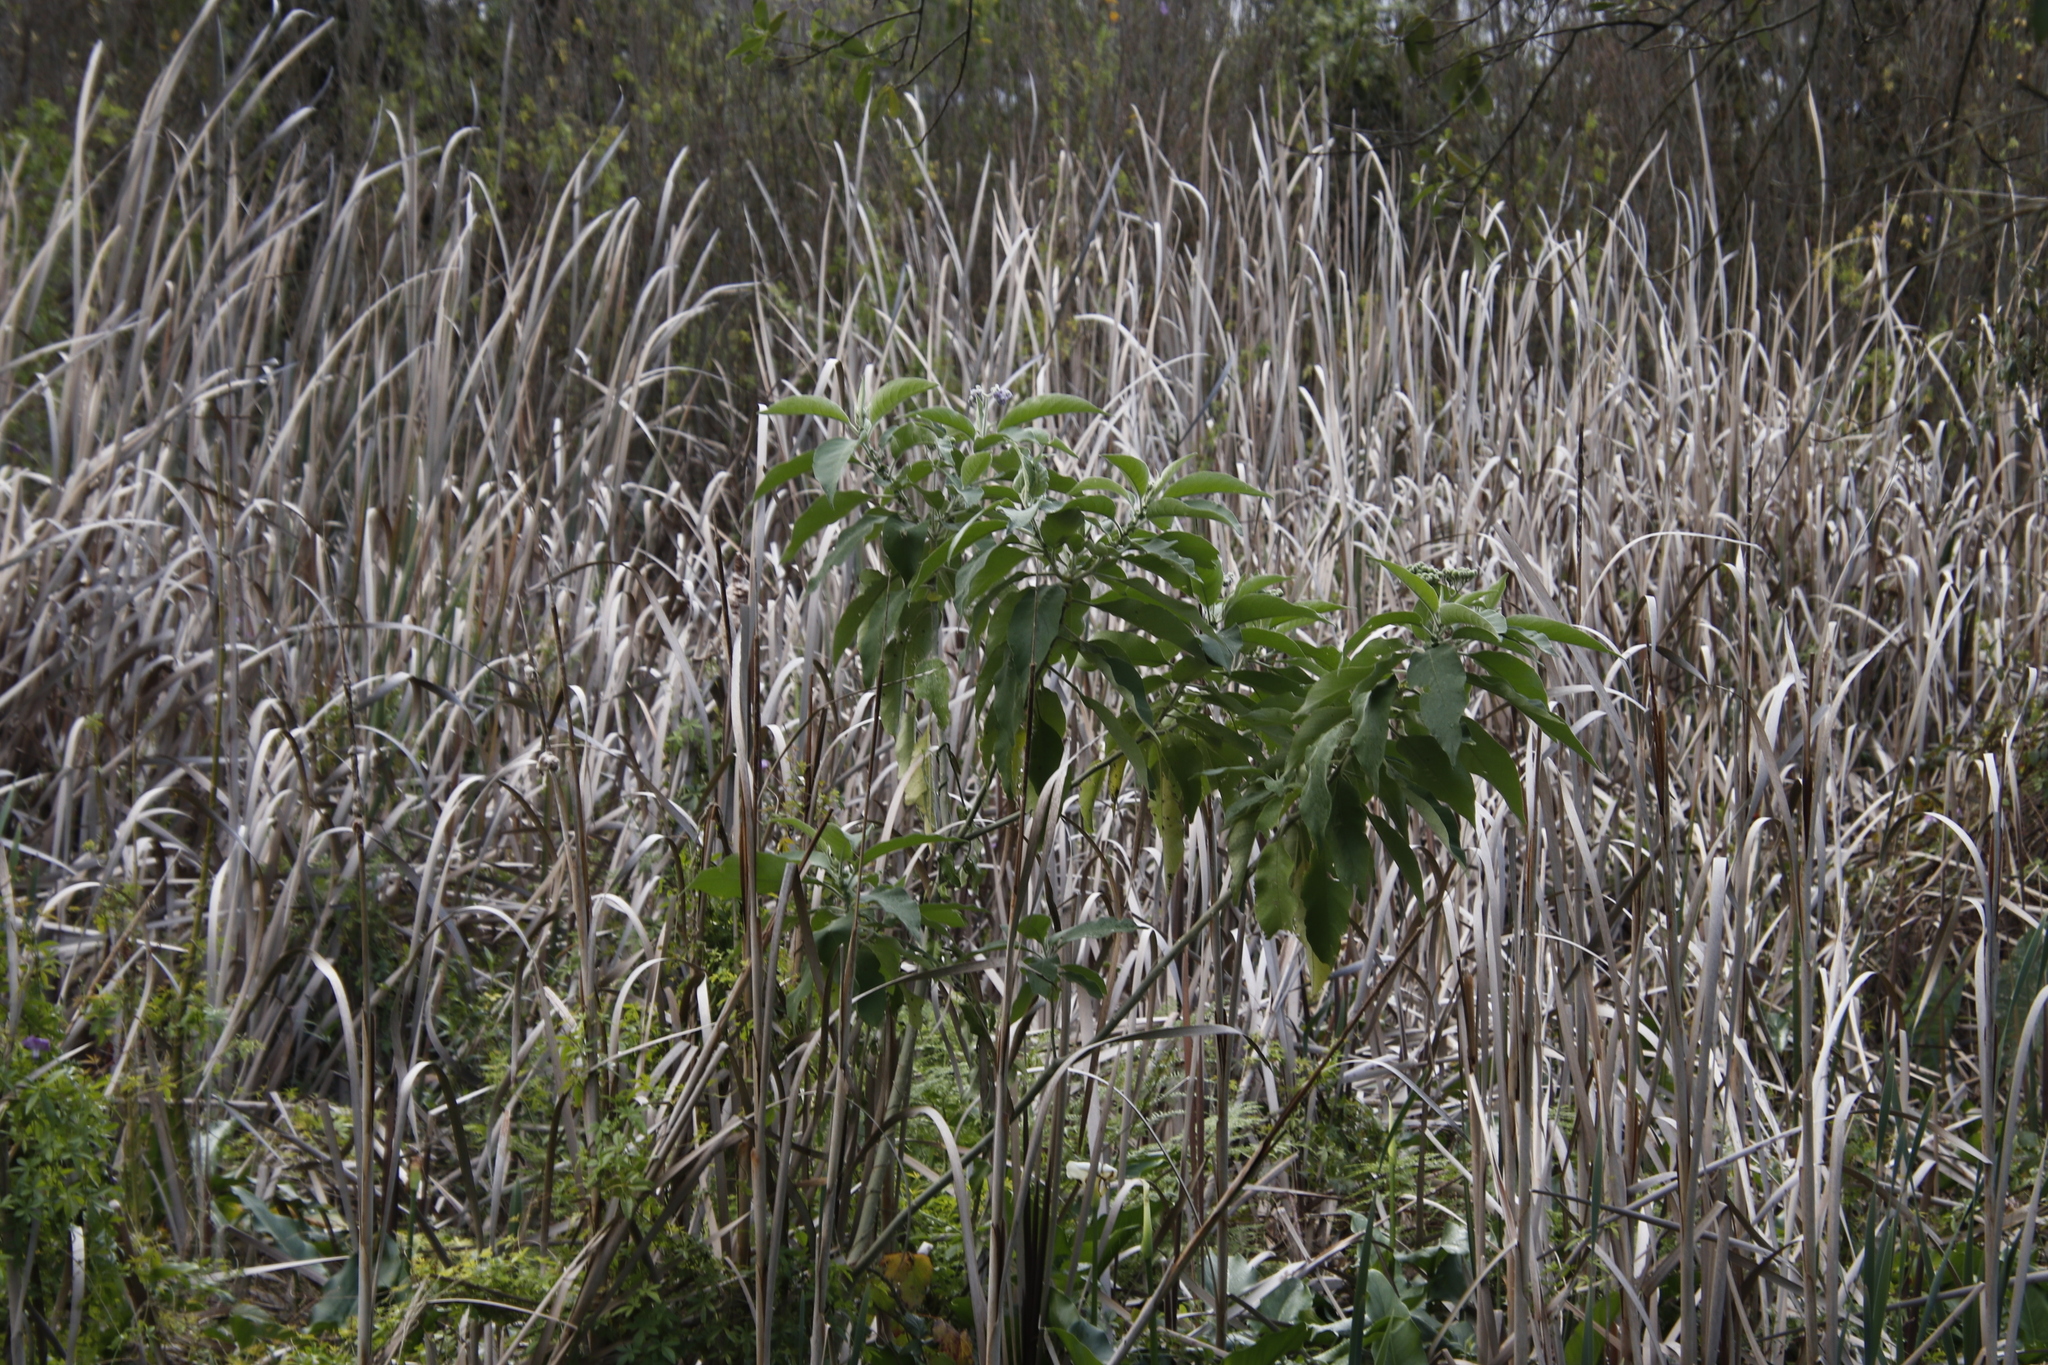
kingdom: Plantae
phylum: Tracheophyta
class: Magnoliopsida
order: Solanales
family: Solanaceae
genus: Solanum
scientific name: Solanum mauritianum
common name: Earleaf nightshade
